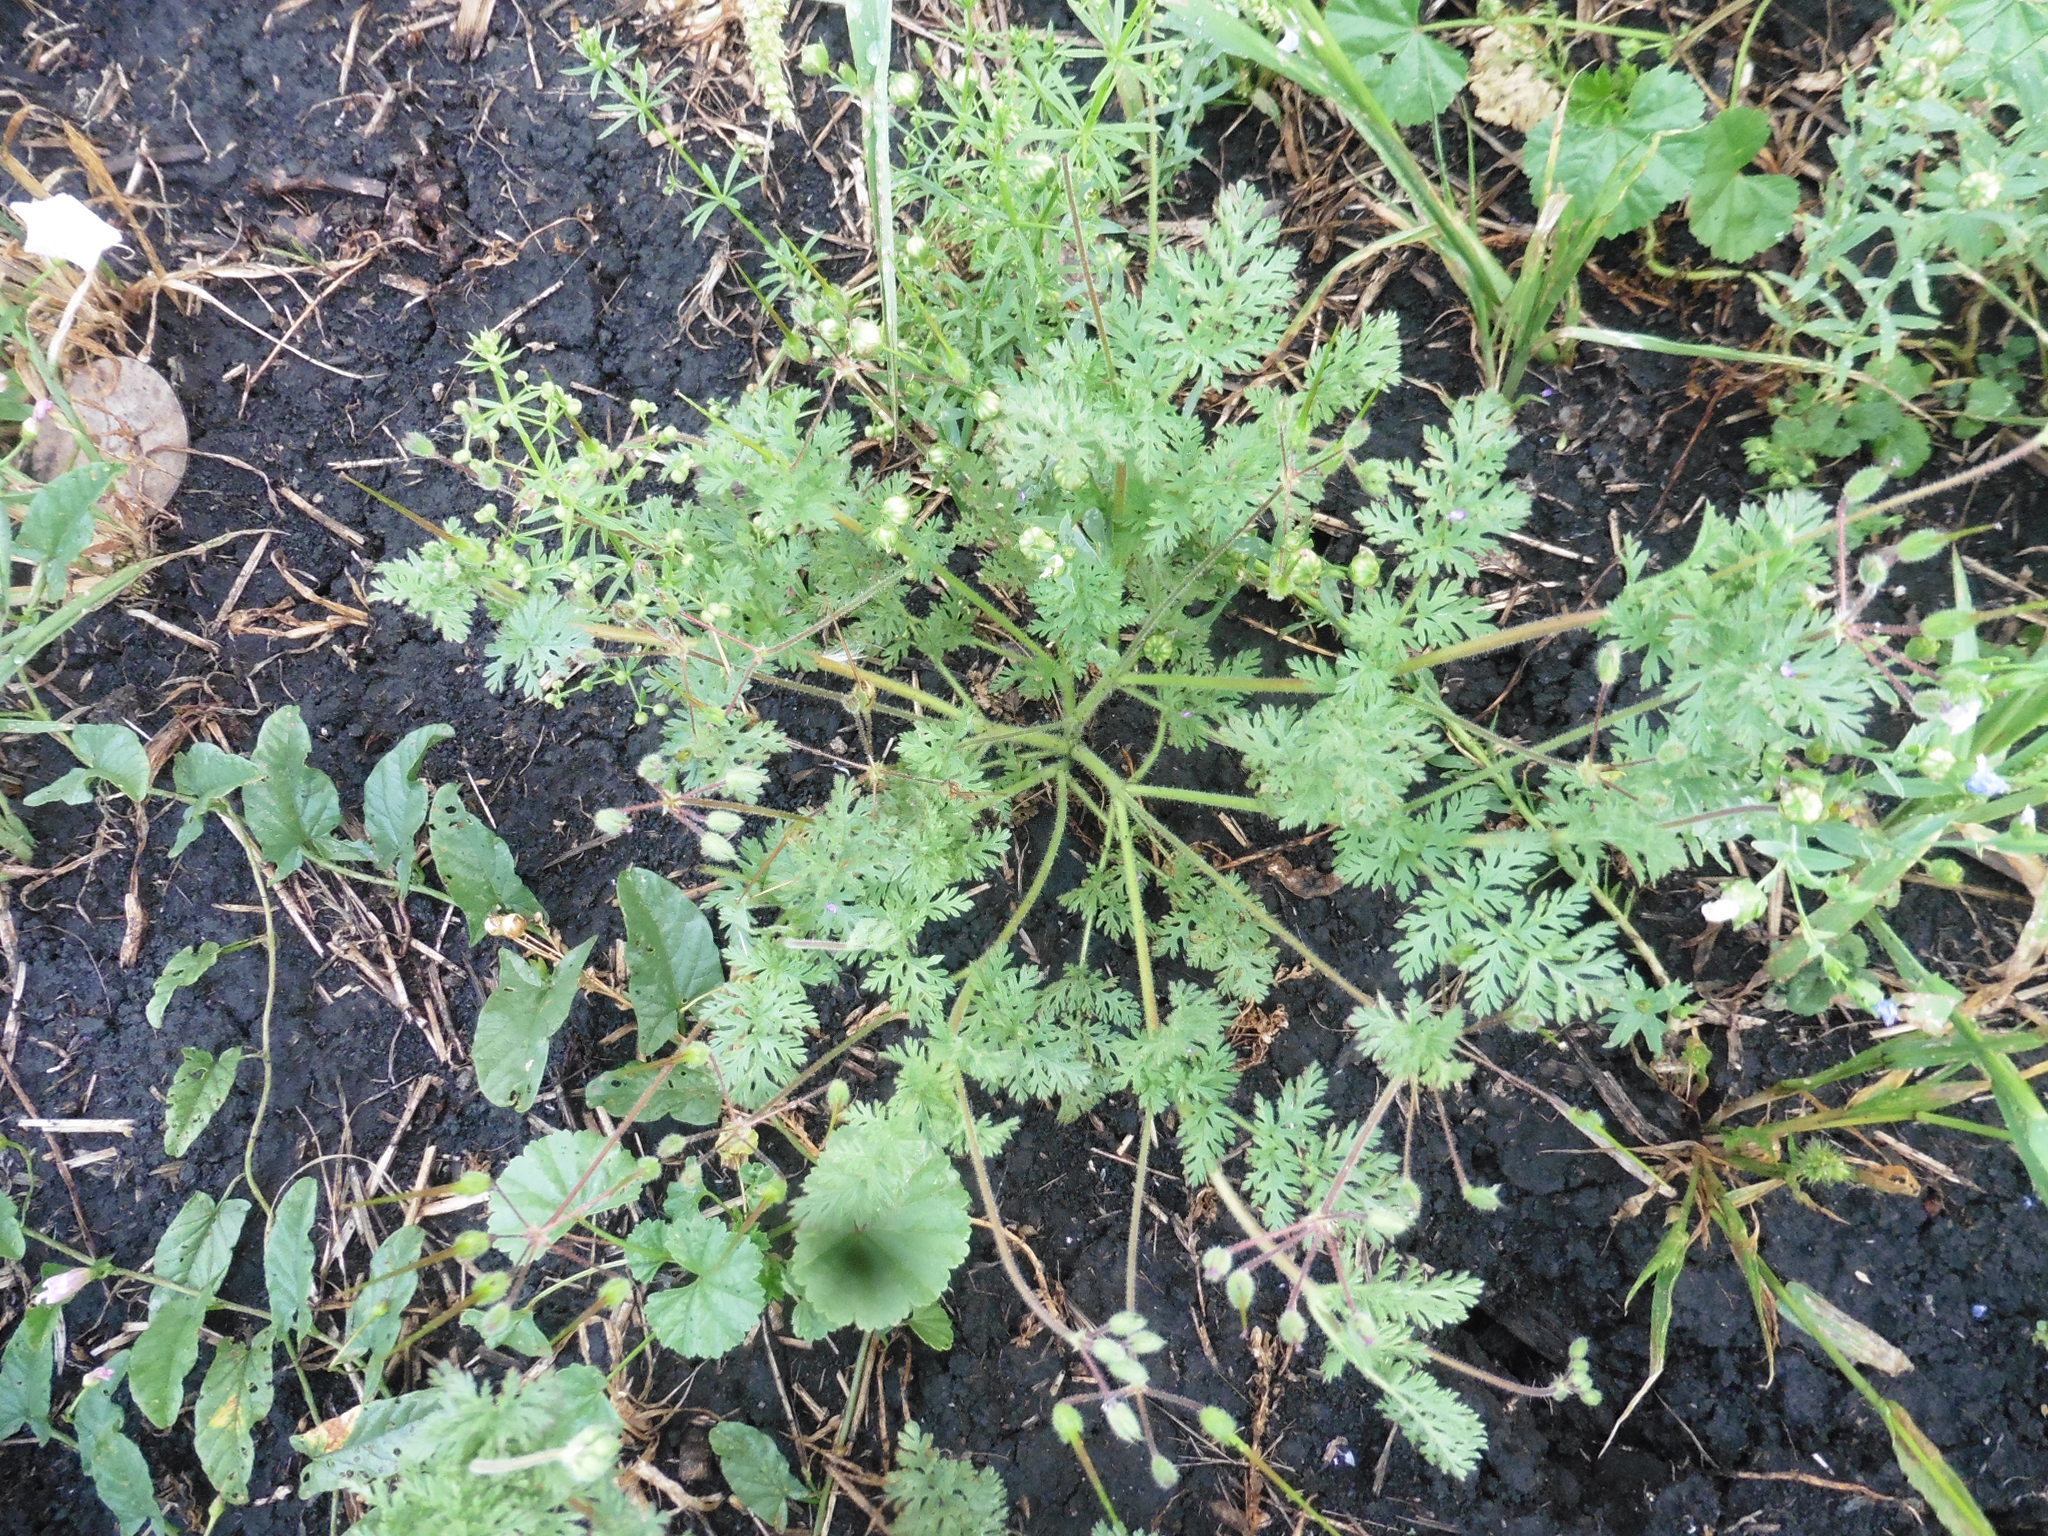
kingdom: Plantae
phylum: Tracheophyta
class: Magnoliopsida
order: Geraniales
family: Geraniaceae
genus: Erodium
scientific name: Erodium cicutarium
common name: Common stork's-bill
